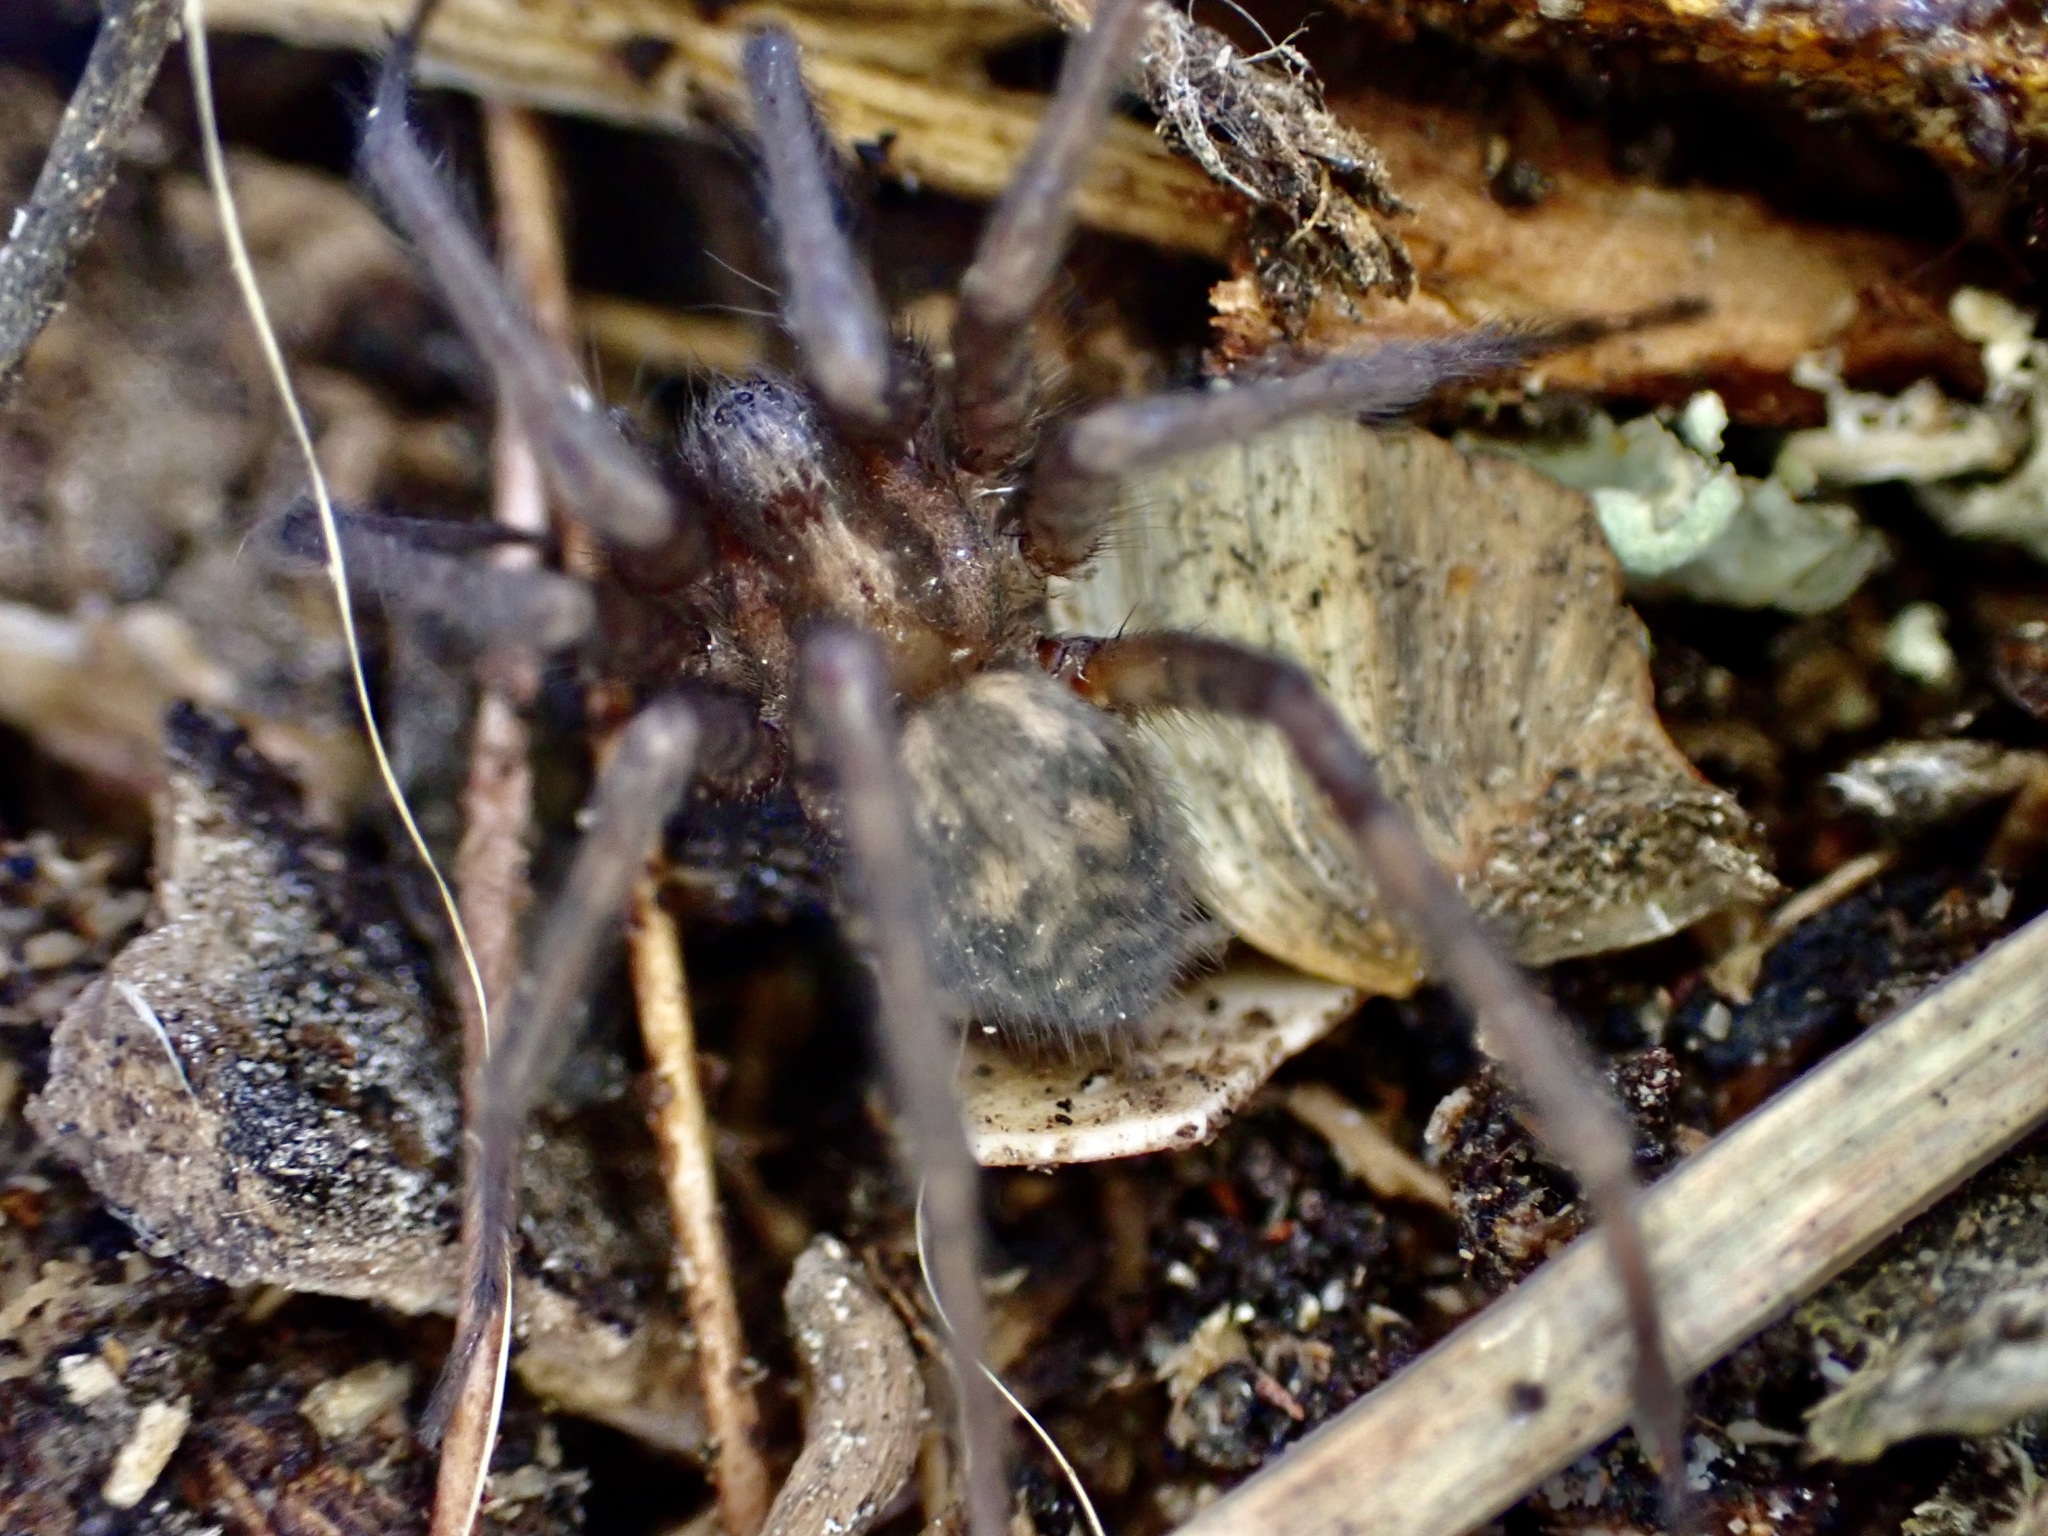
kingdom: Animalia
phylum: Arthropoda
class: Arachnida
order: Araneae
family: Agelenidae
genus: Tegenaria
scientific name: Tegenaria domestica
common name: Barn funnel weaver
